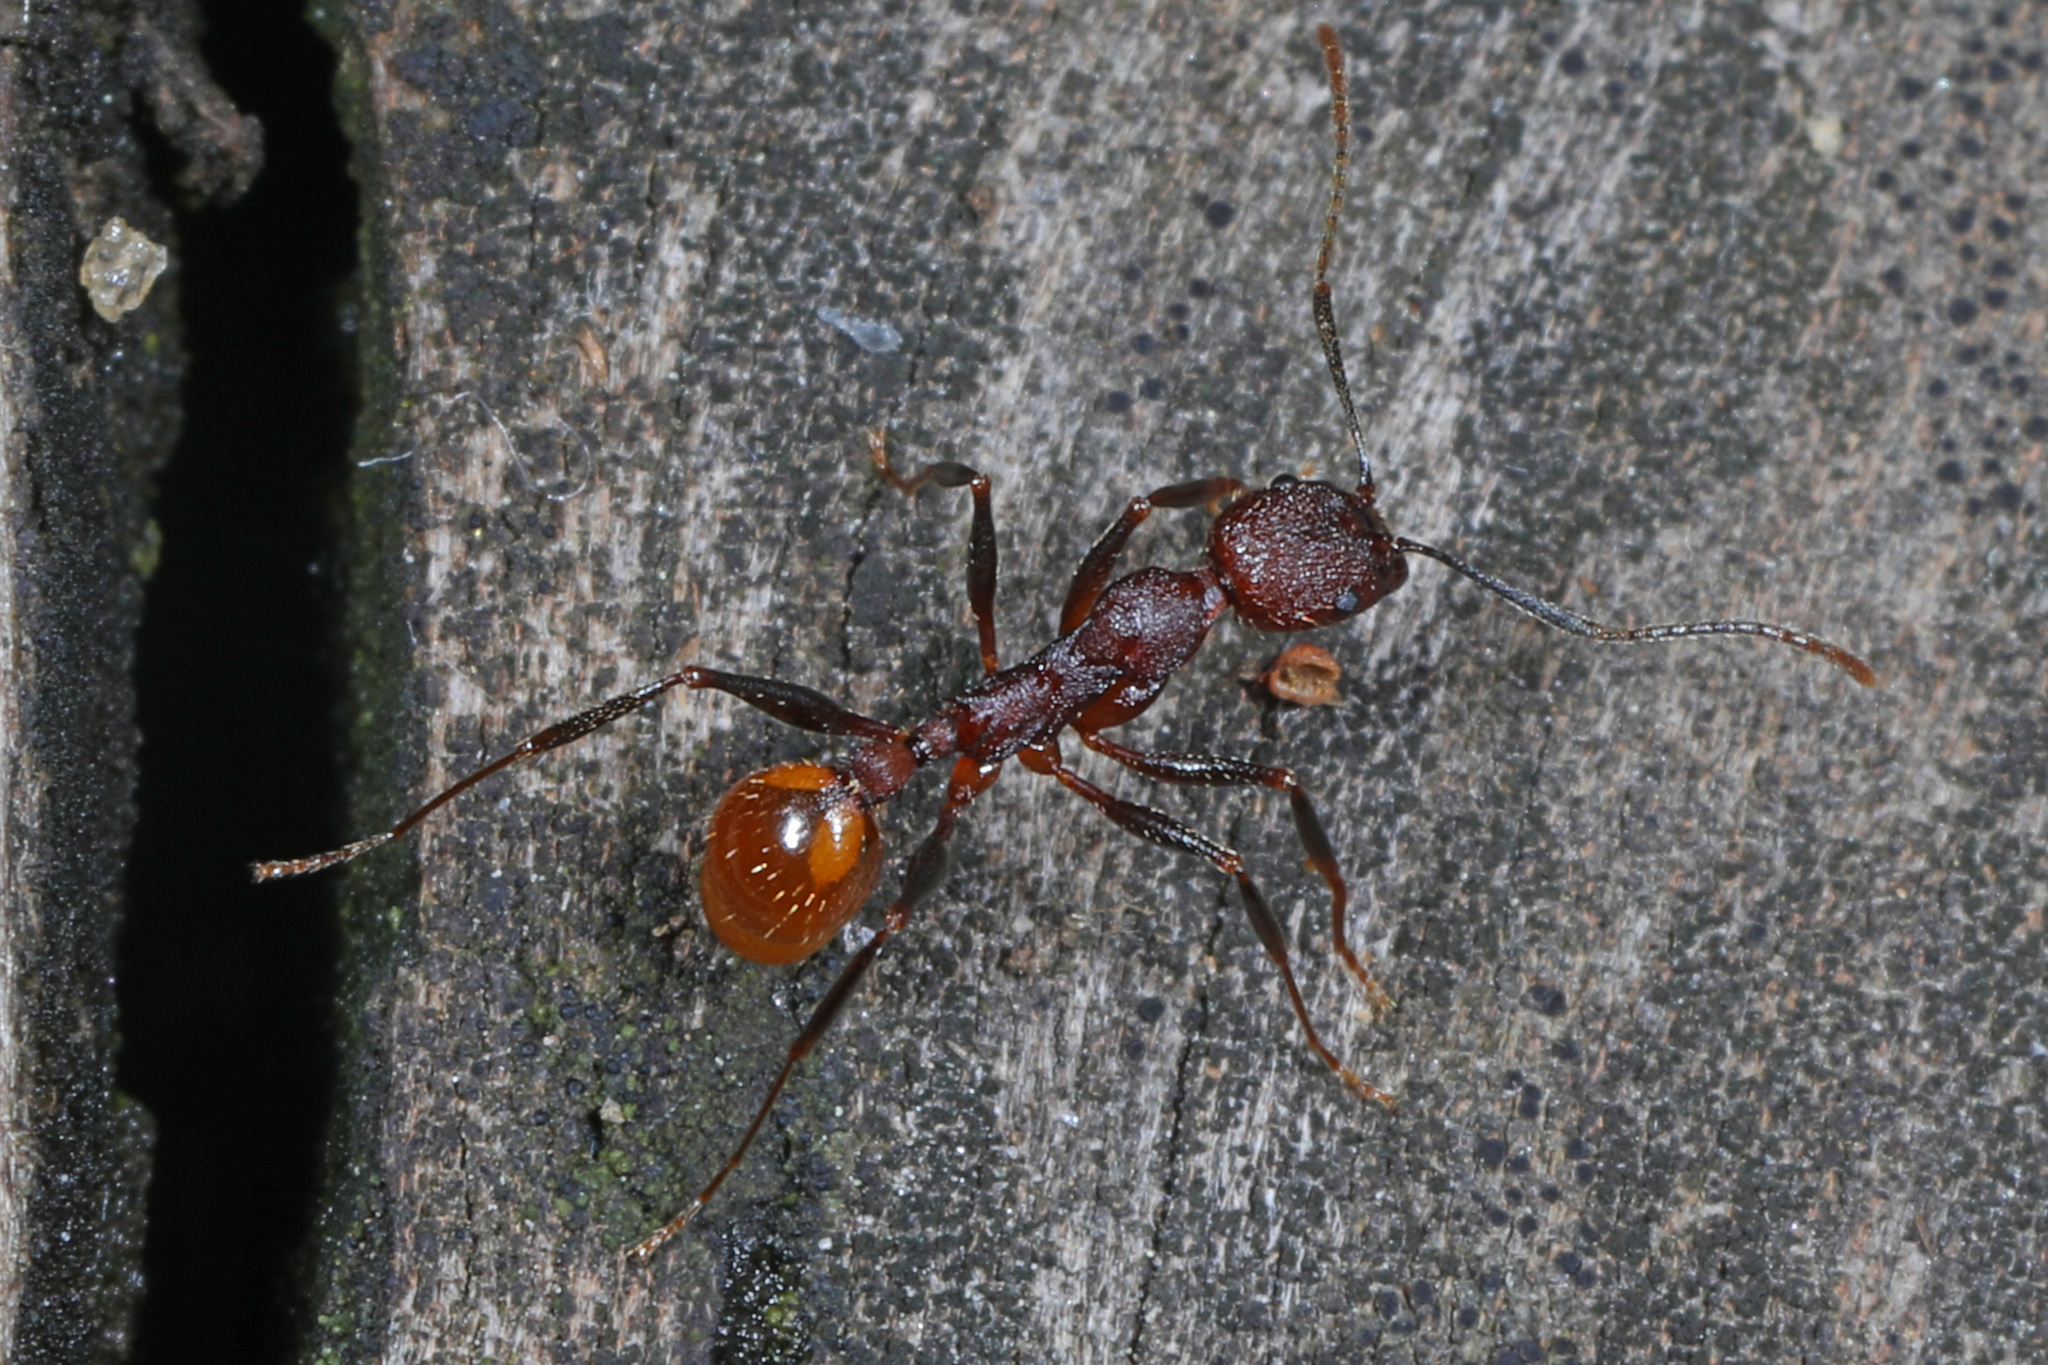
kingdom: Animalia
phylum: Arthropoda
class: Insecta
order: Hymenoptera
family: Formicidae
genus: Aphaenogaster
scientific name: Aphaenogaster lamellidens
